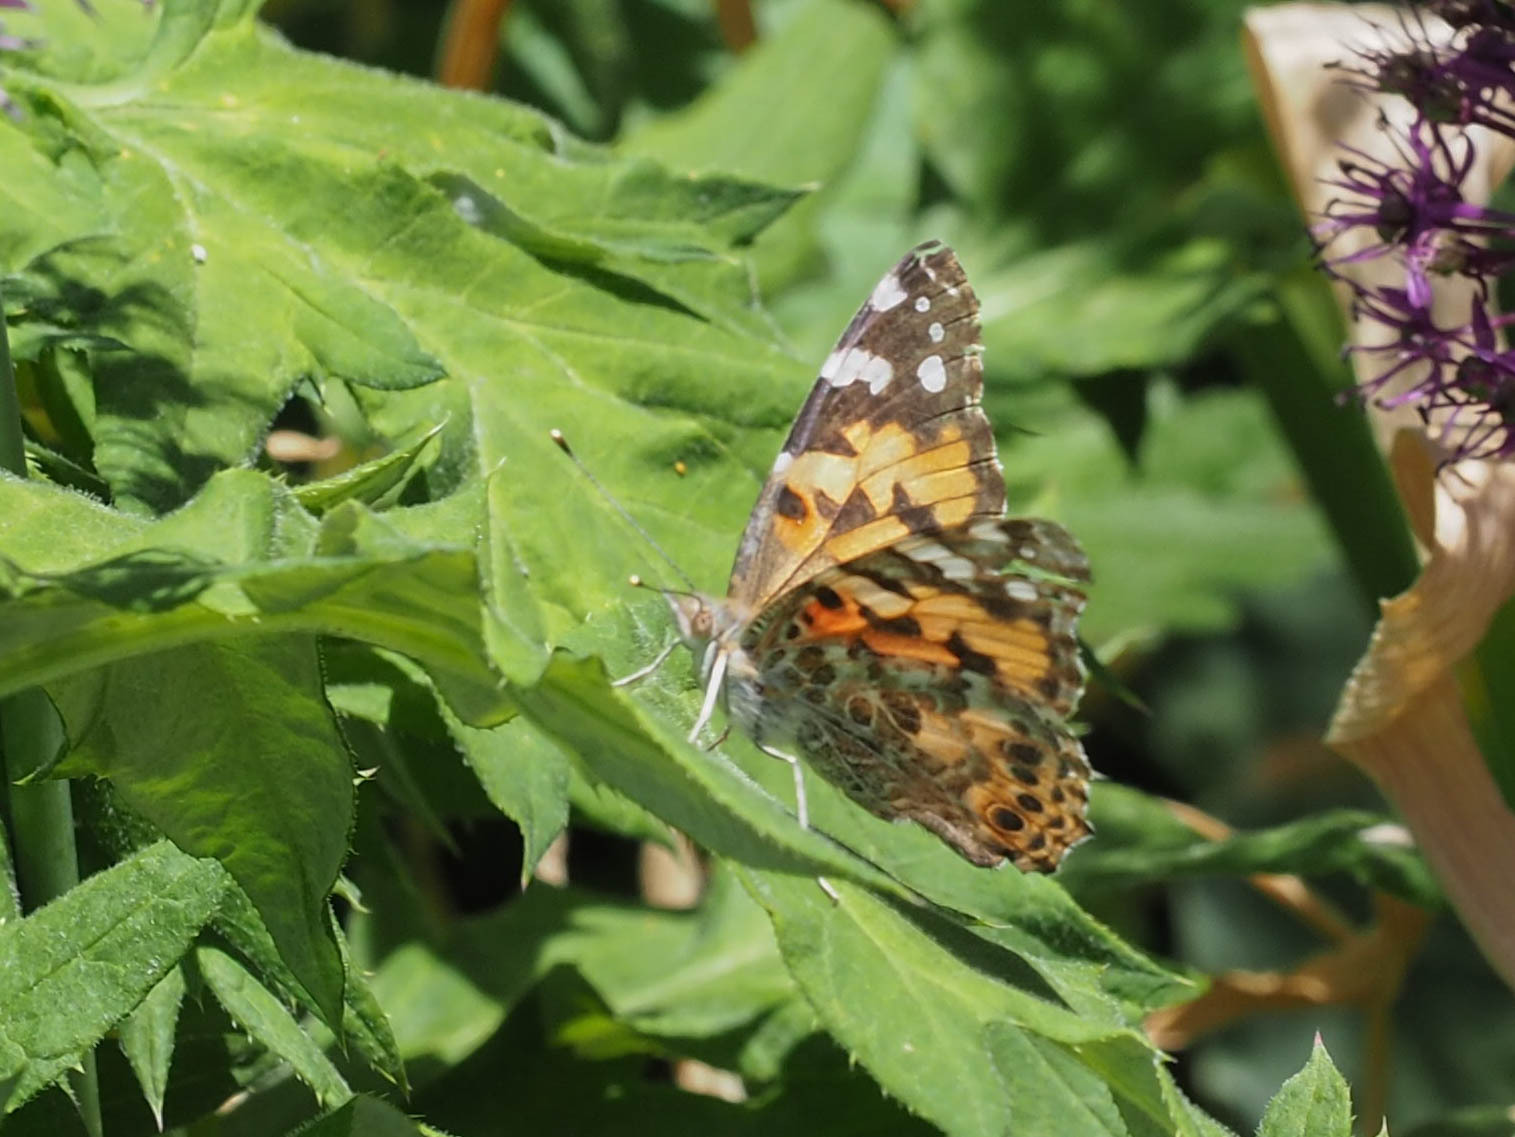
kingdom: Animalia
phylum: Arthropoda
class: Insecta
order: Lepidoptera
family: Nymphalidae
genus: Vanessa
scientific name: Vanessa cardui
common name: Painted lady
